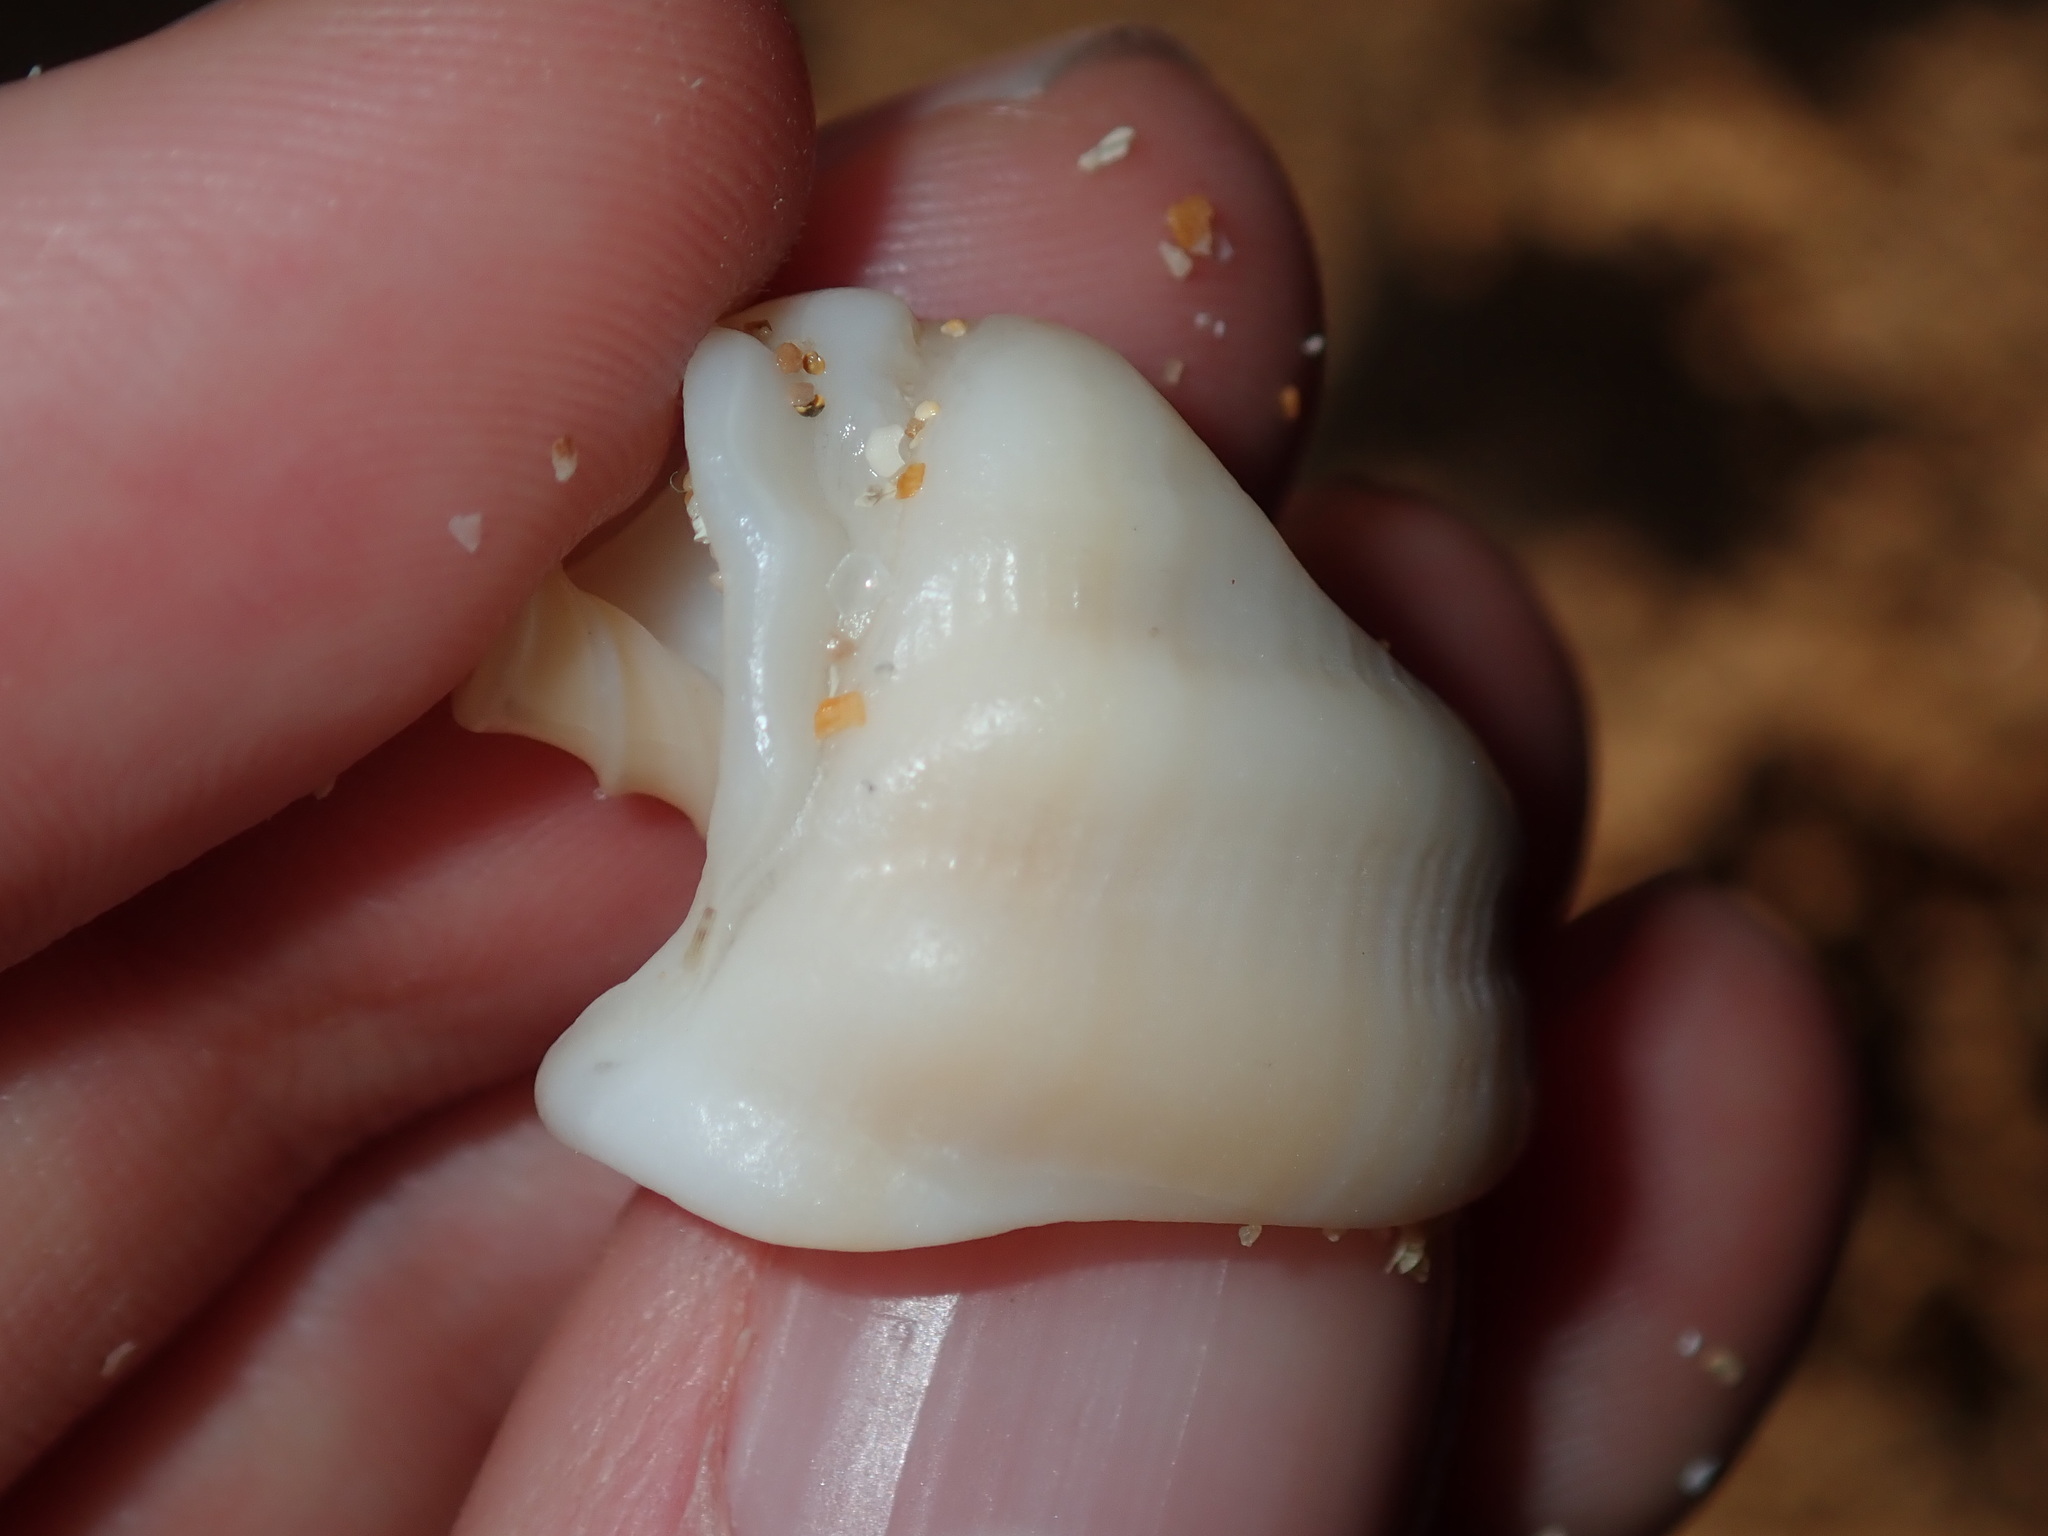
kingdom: Animalia
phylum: Mollusca
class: Gastropoda
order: Neogastropoda
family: Cancellariidae
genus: Merica
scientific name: Merica undulata
